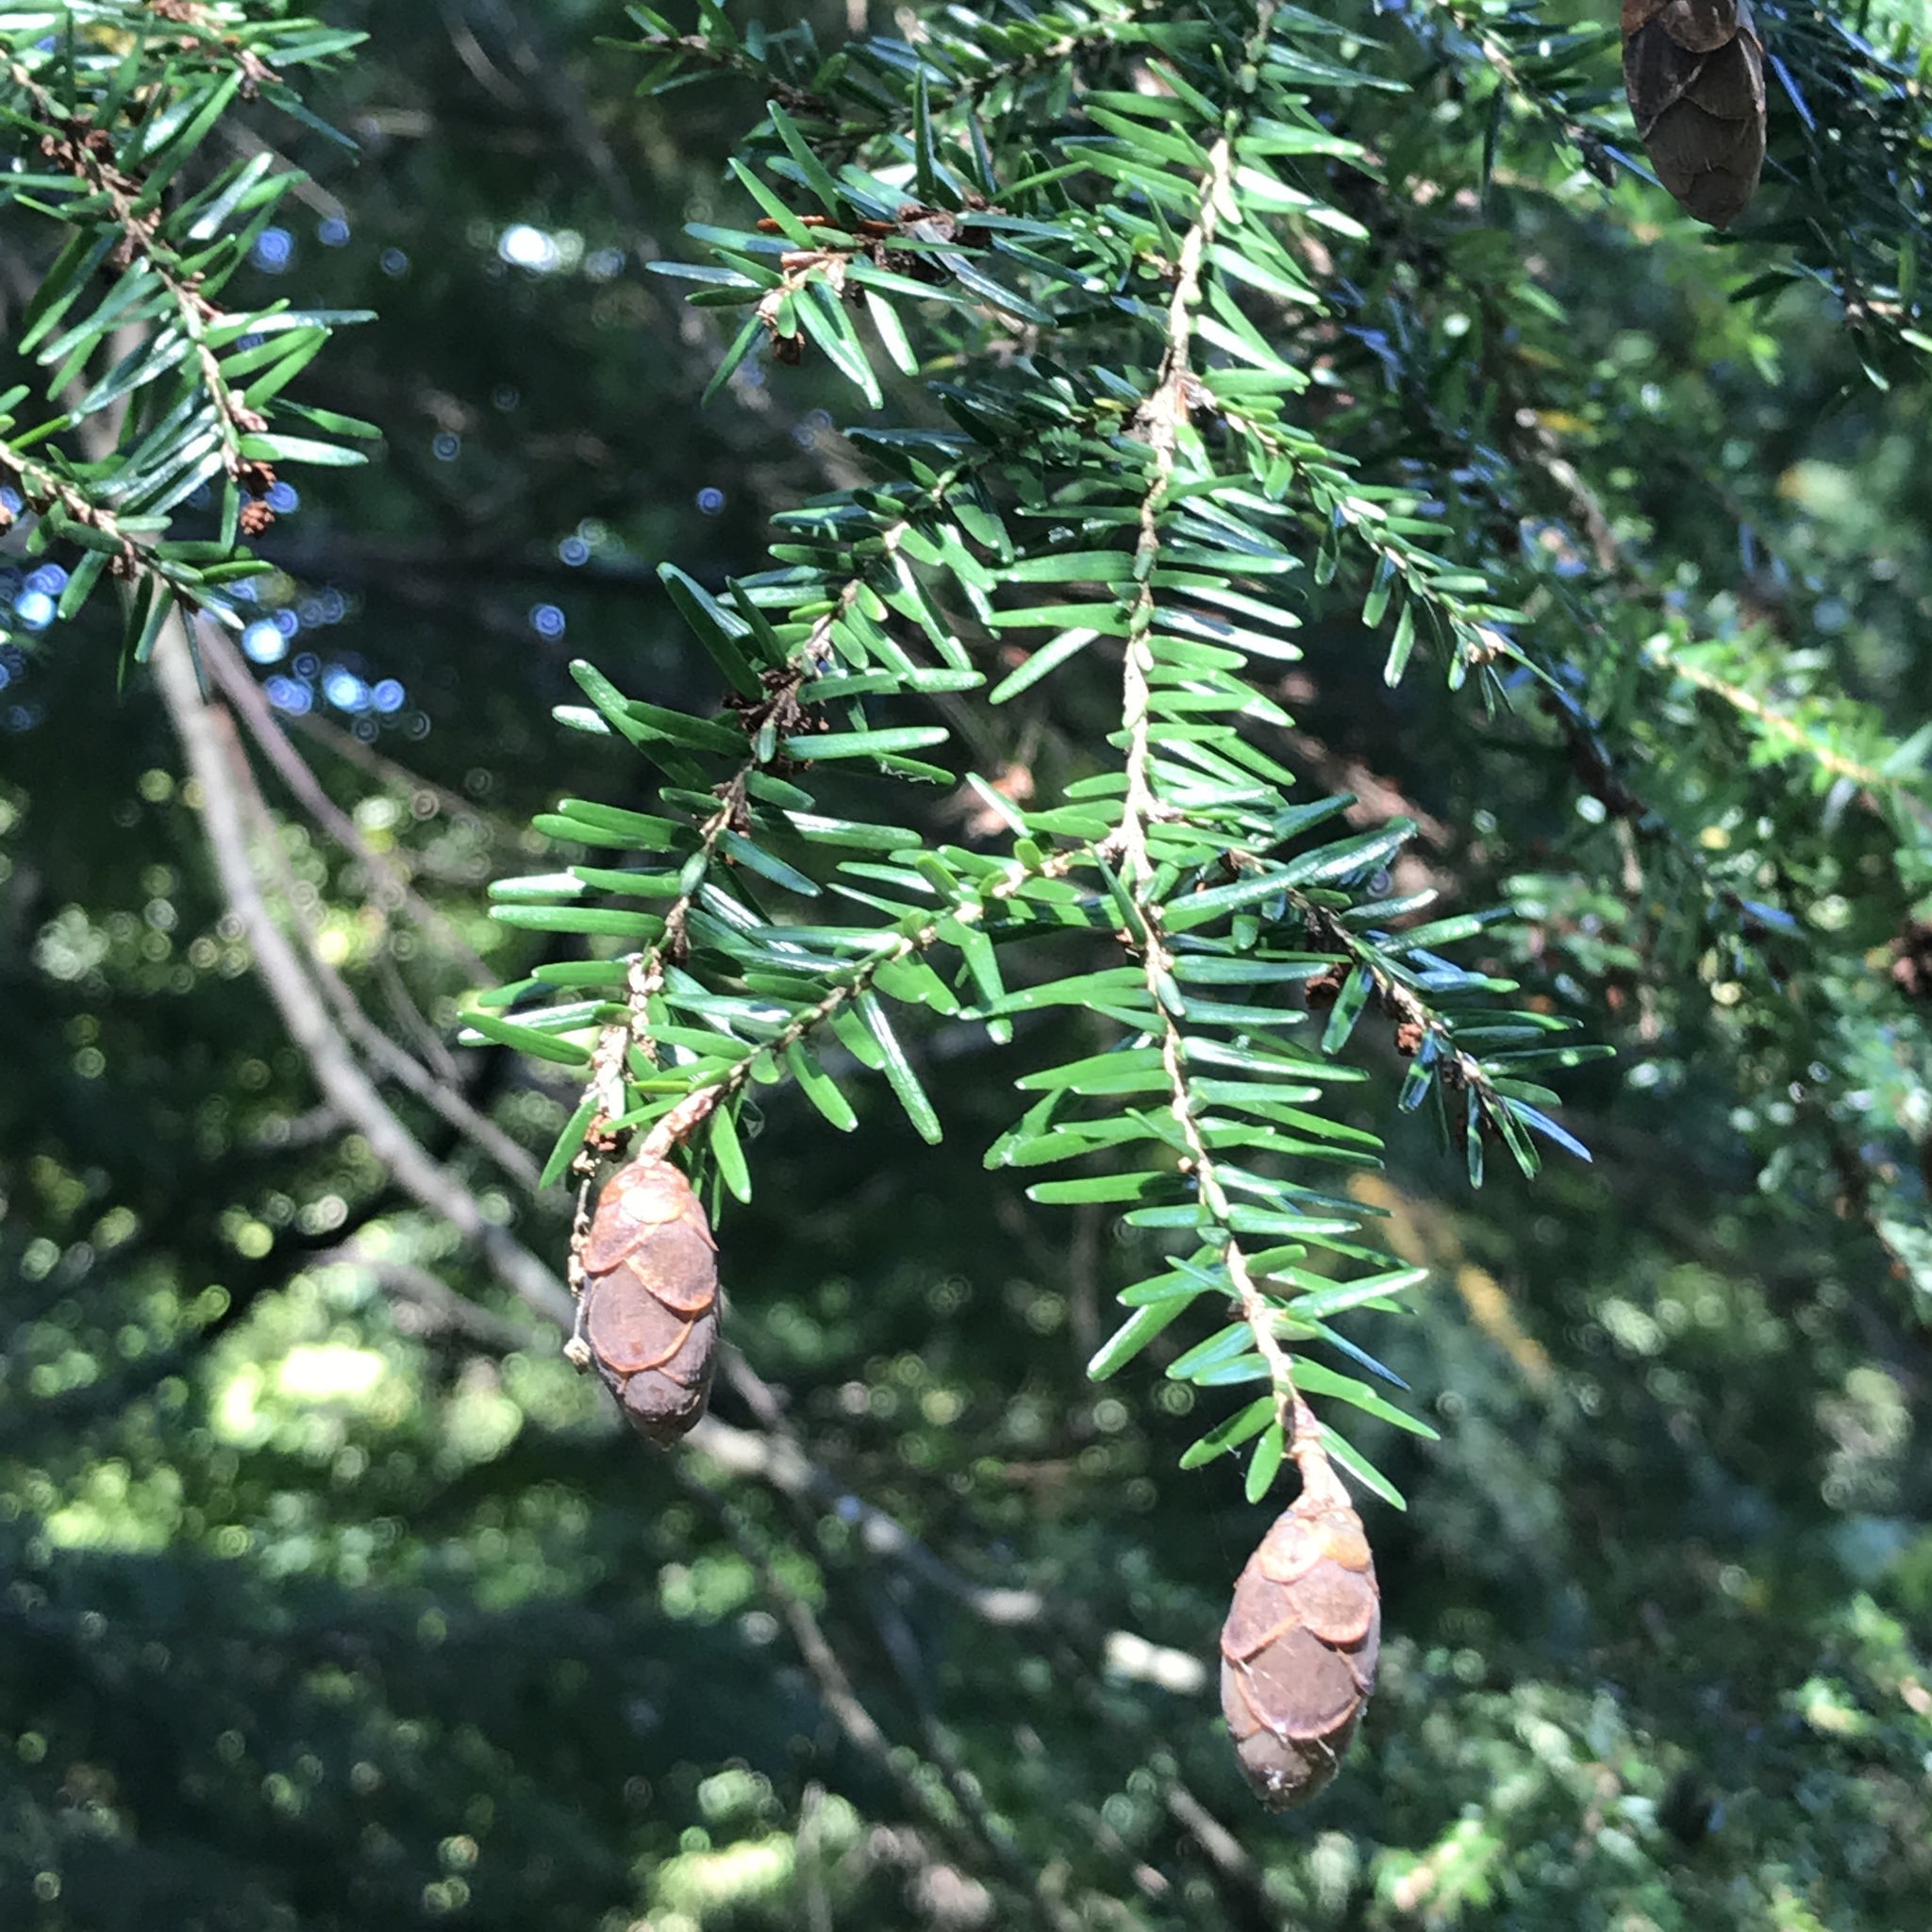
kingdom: Plantae
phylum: Tracheophyta
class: Pinopsida
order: Pinales
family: Pinaceae
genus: Tsuga
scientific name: Tsuga canadensis
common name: Eastern hemlock
